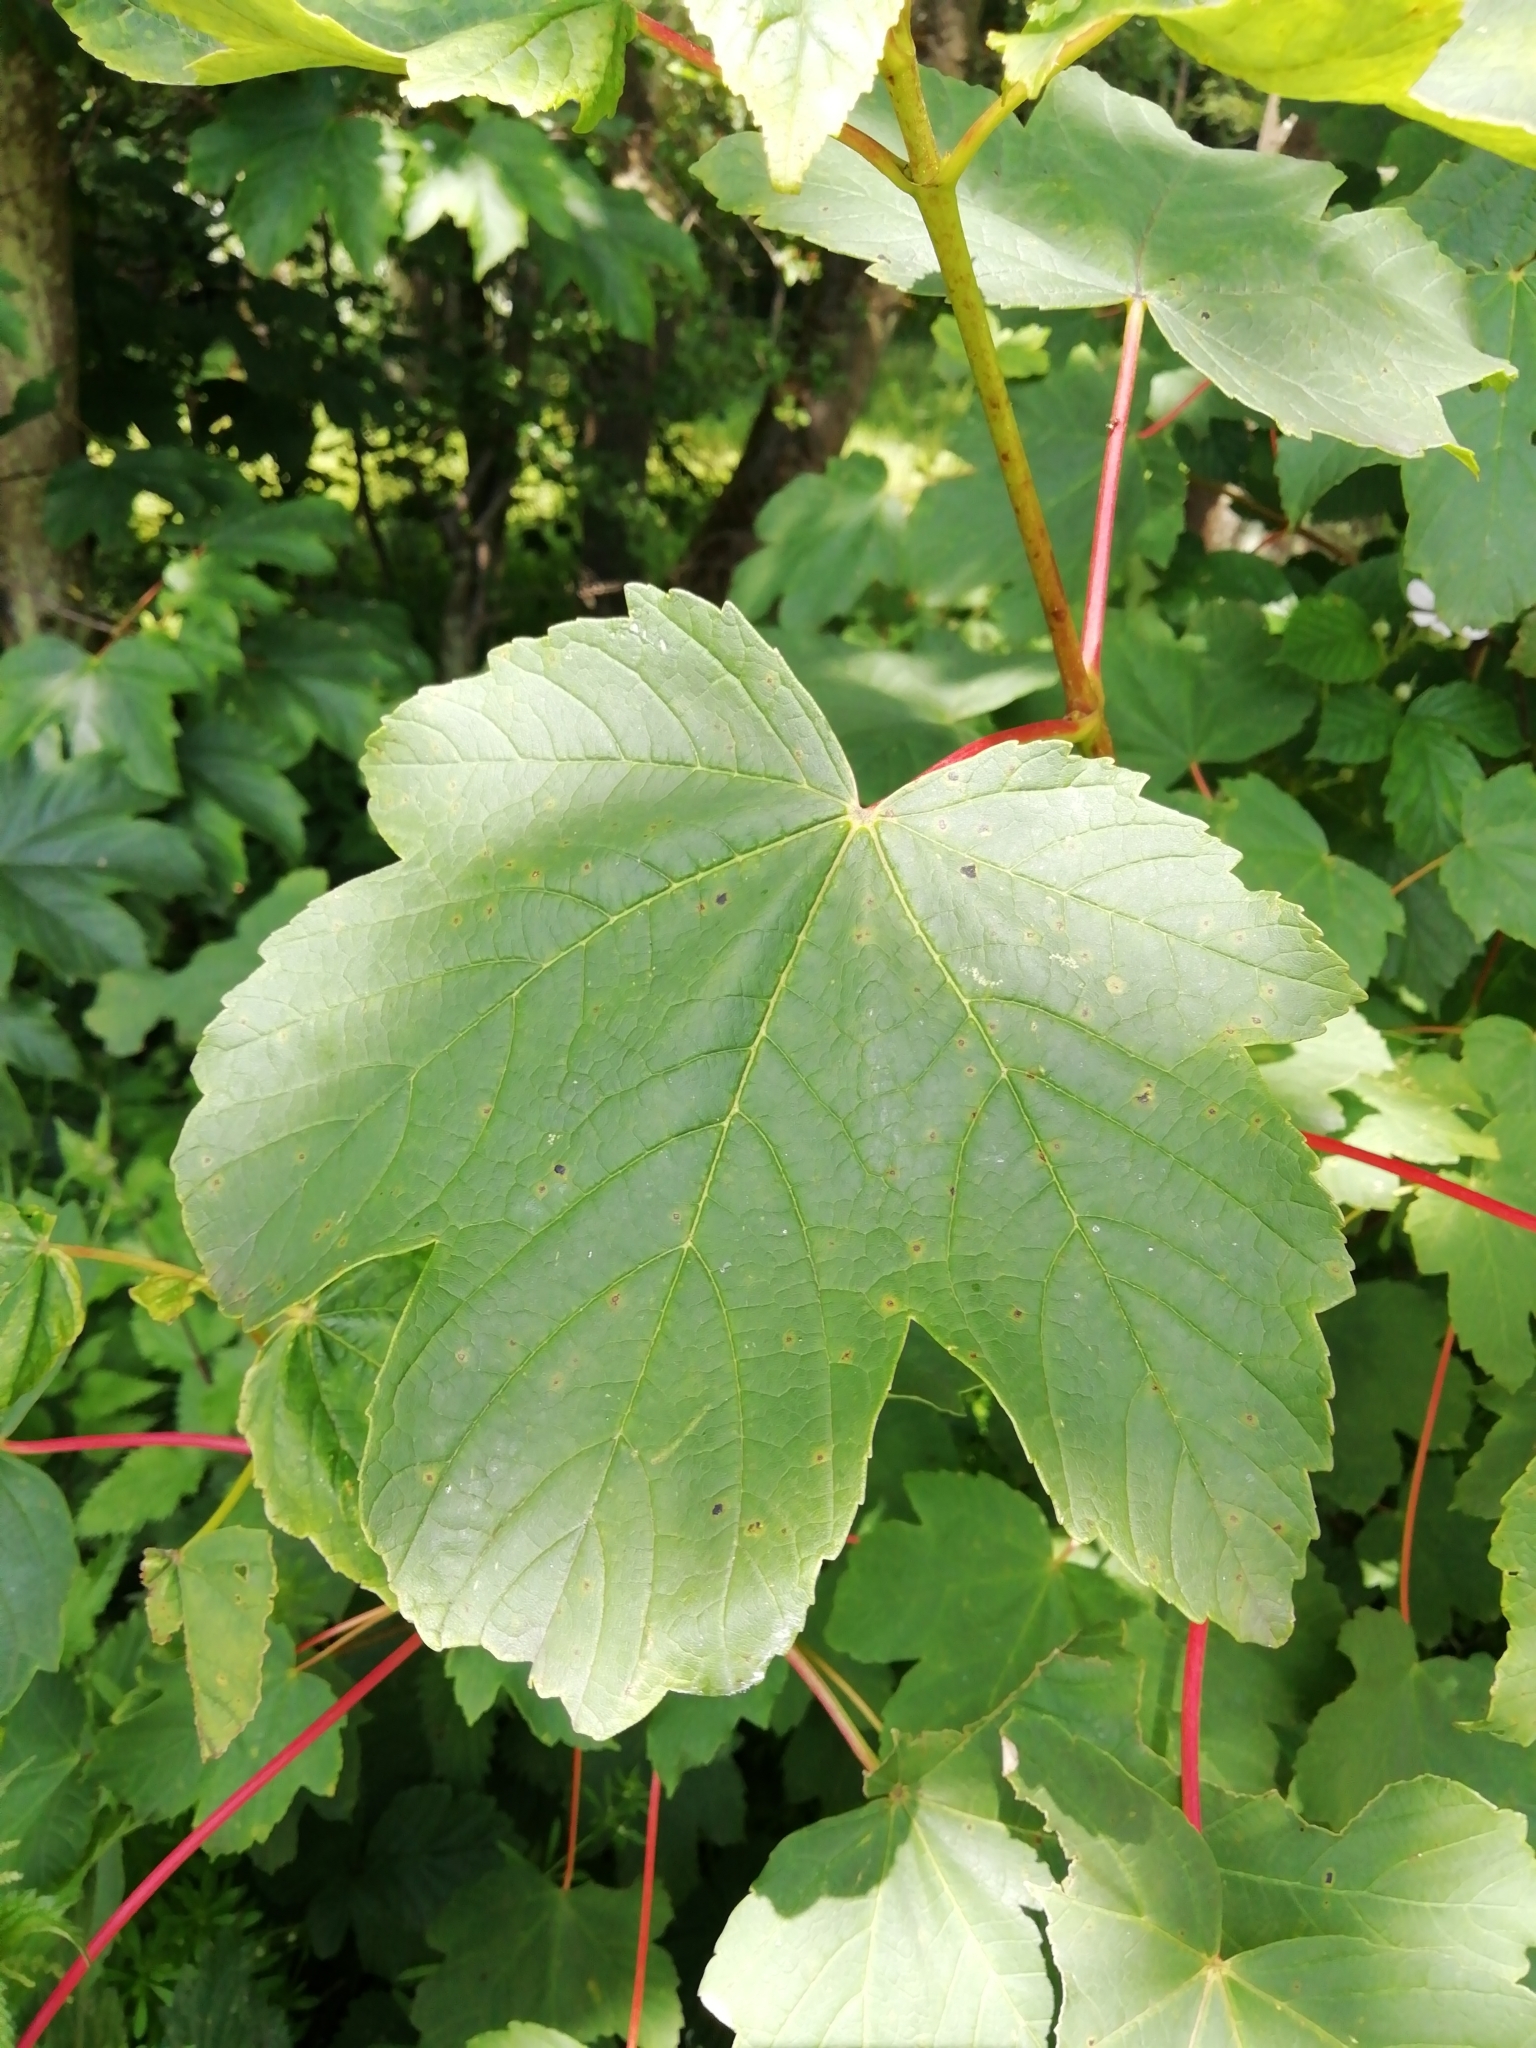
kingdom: Plantae
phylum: Tracheophyta
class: Magnoliopsida
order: Sapindales
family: Sapindaceae
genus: Acer
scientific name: Acer pseudoplatanus
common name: Sycamore
